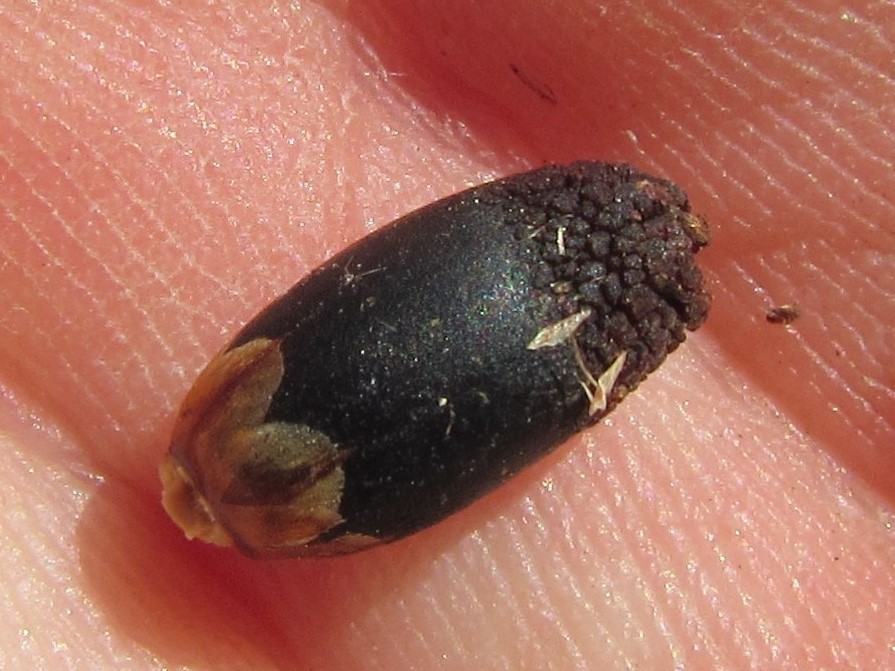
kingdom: Plantae
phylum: Tracheophyta
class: Liliopsida
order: Poales
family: Restionaceae
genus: Ceratocaryum
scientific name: Ceratocaryum caespitosum
